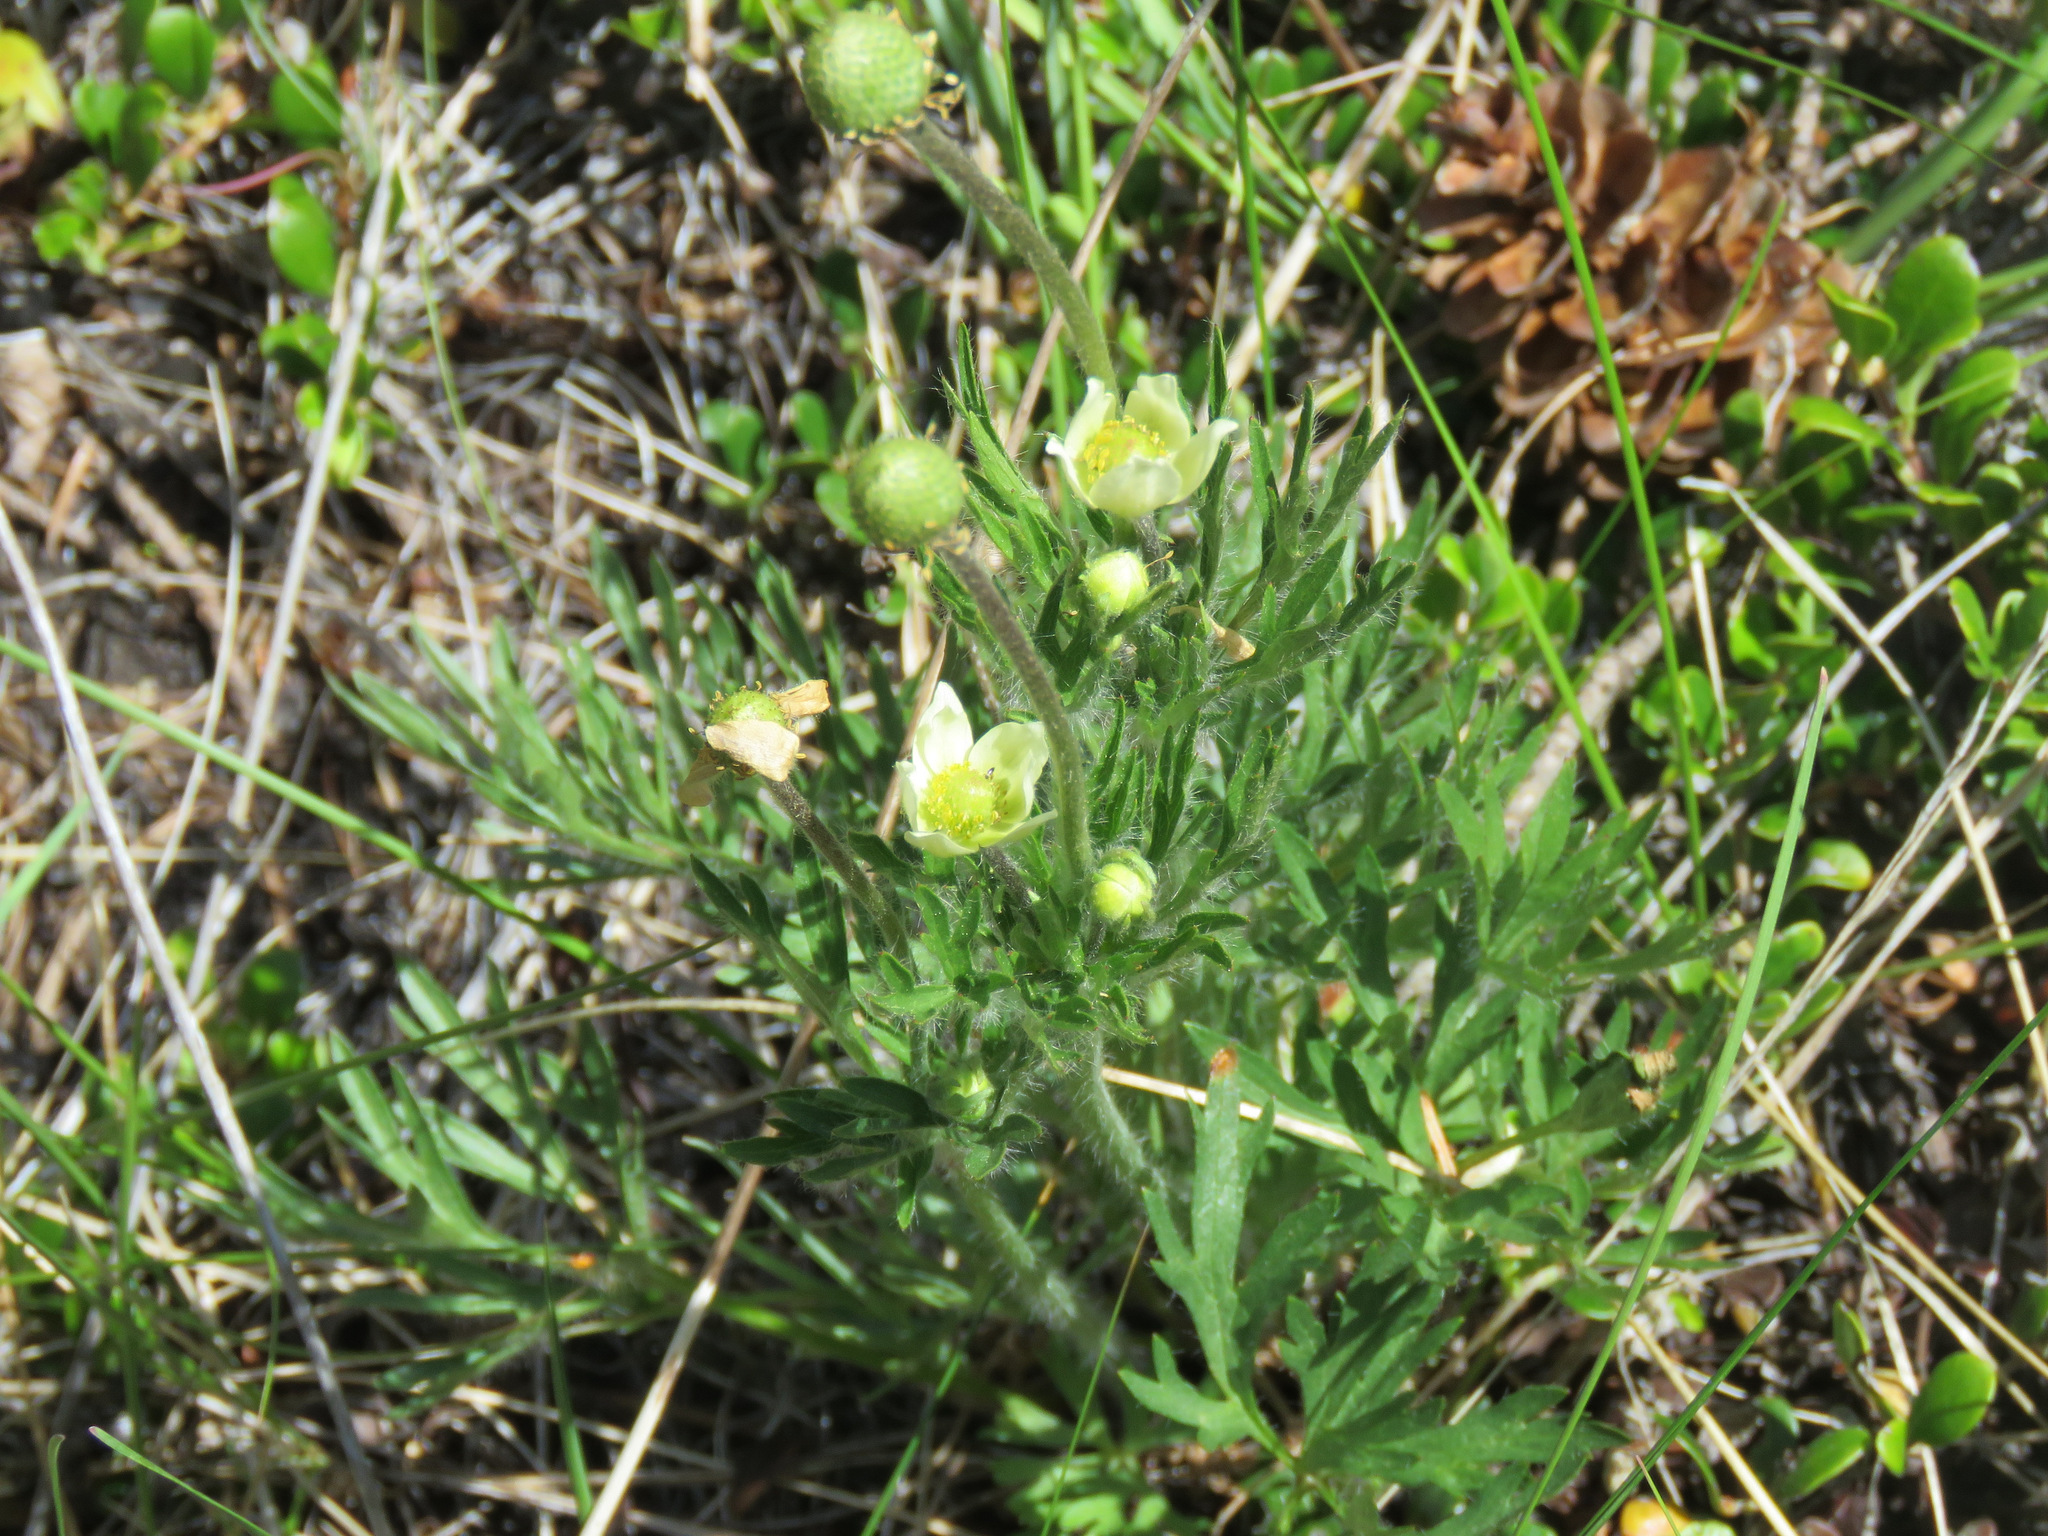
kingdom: Plantae
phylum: Tracheophyta
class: Magnoliopsida
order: Ranunculales
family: Ranunculaceae
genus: Anemone
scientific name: Anemone multifida
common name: Bird's-foot anemone
